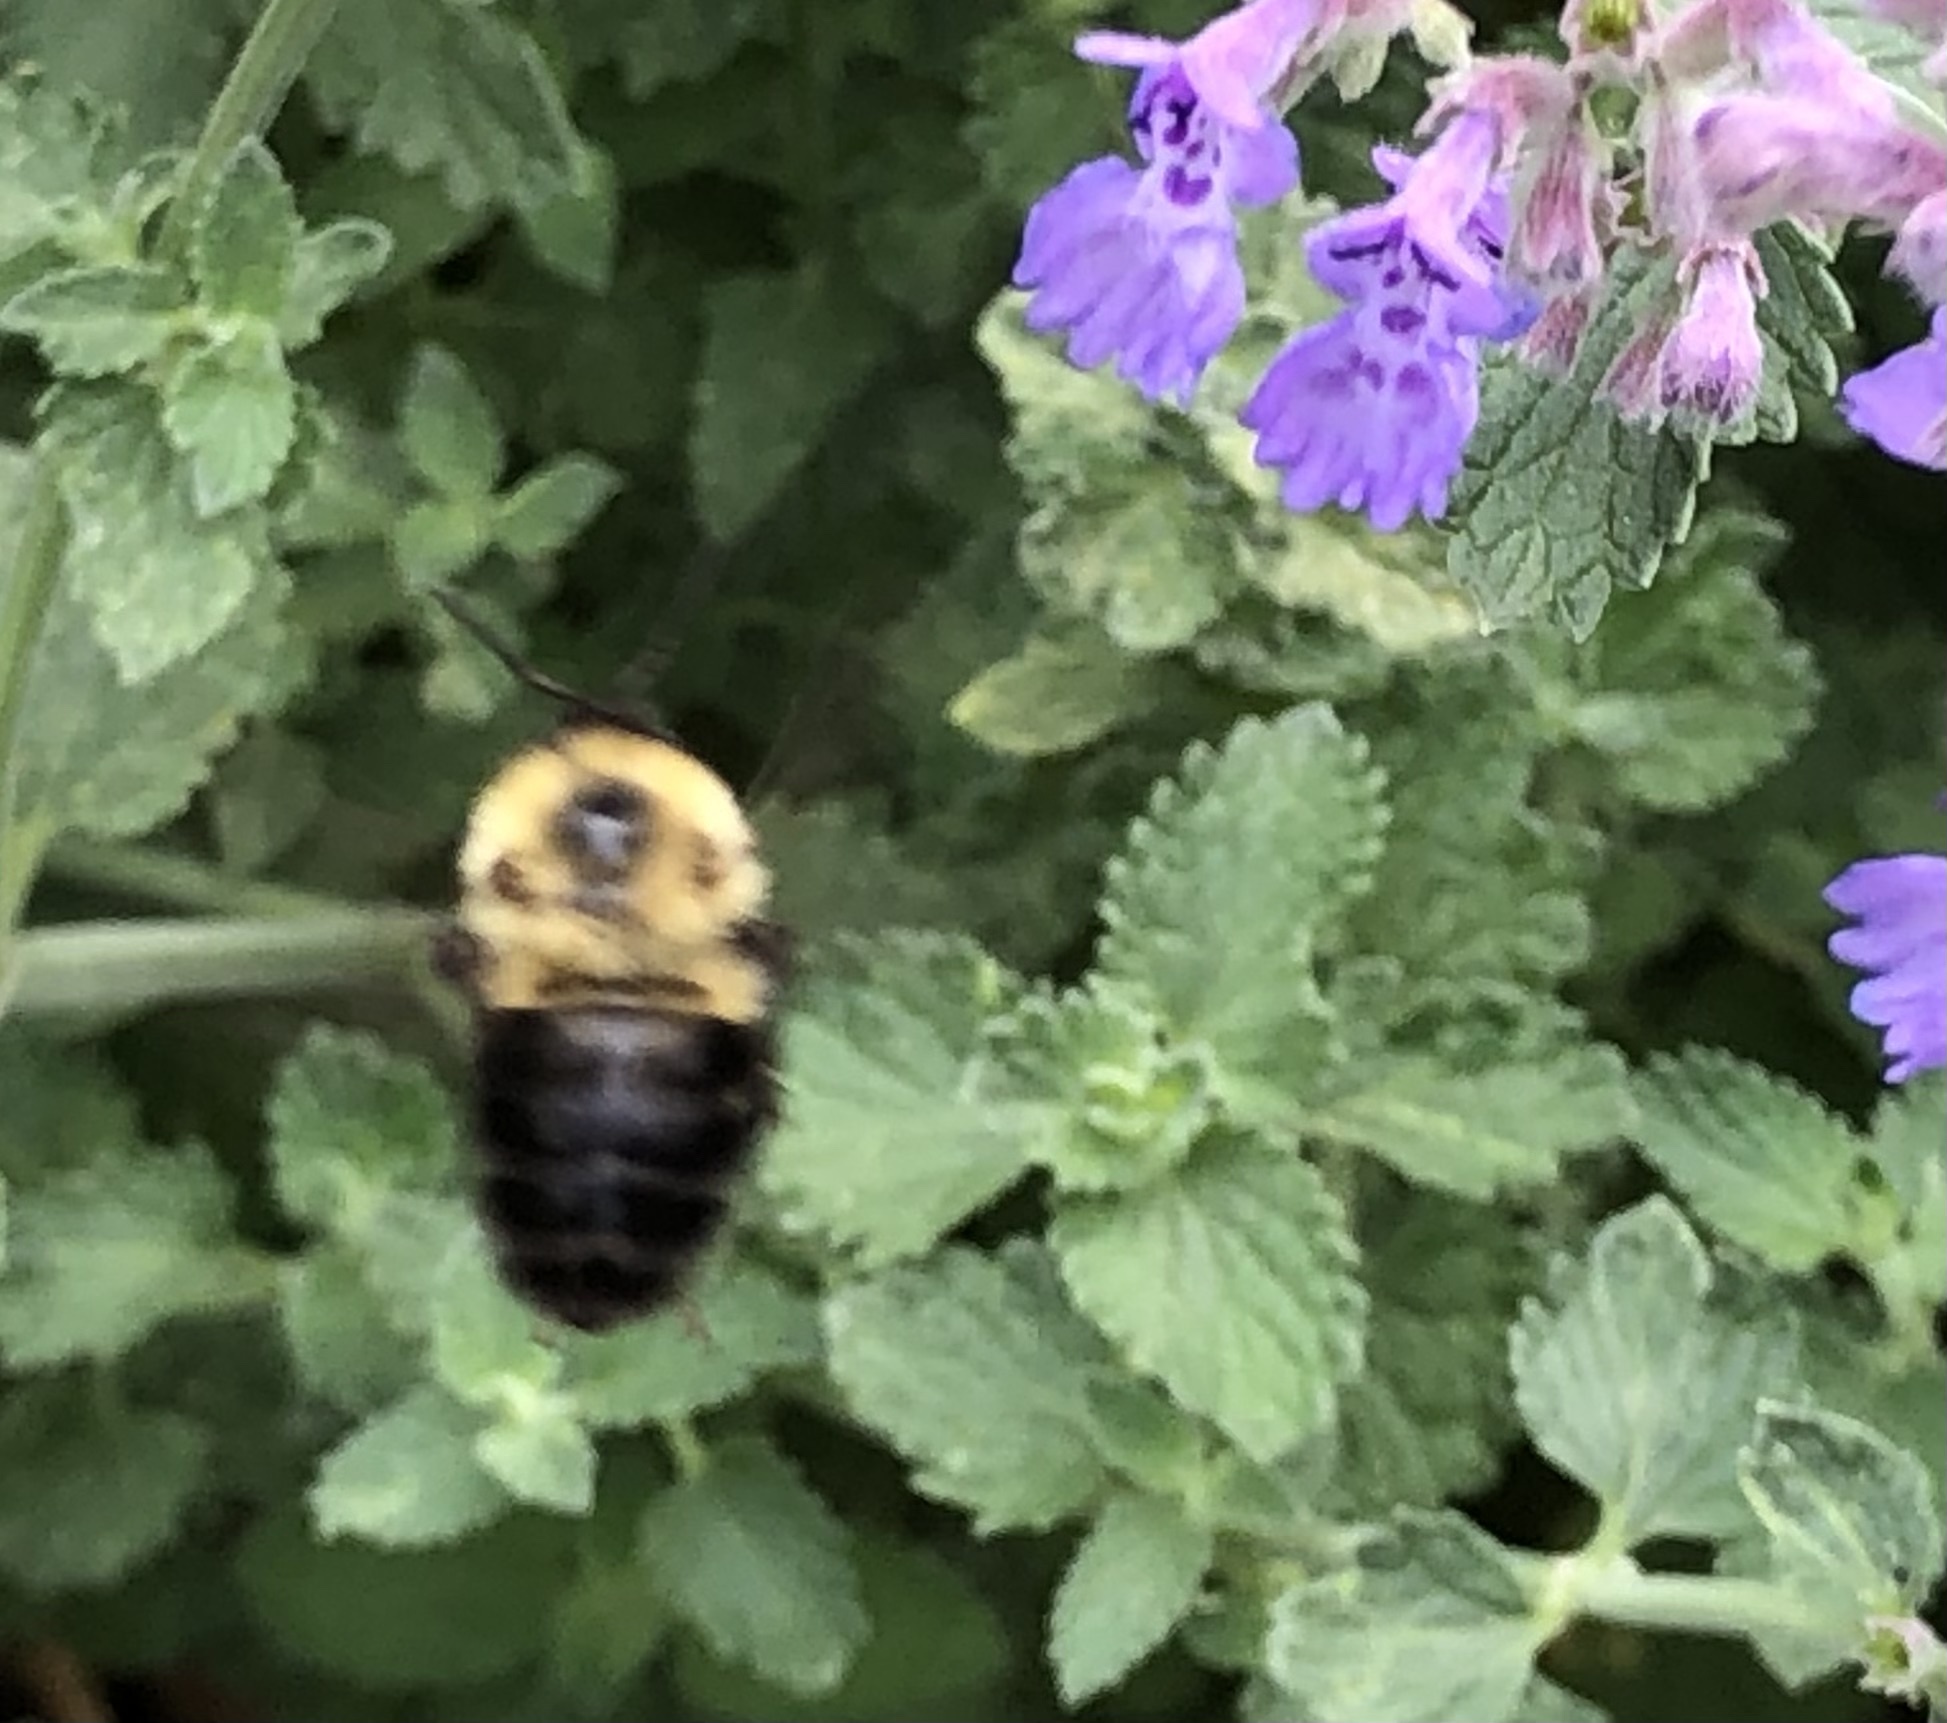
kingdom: Animalia
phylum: Arthropoda
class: Insecta
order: Hymenoptera
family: Apidae
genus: Bombus
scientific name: Bombus impatiens
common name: Common eastern bumble bee
